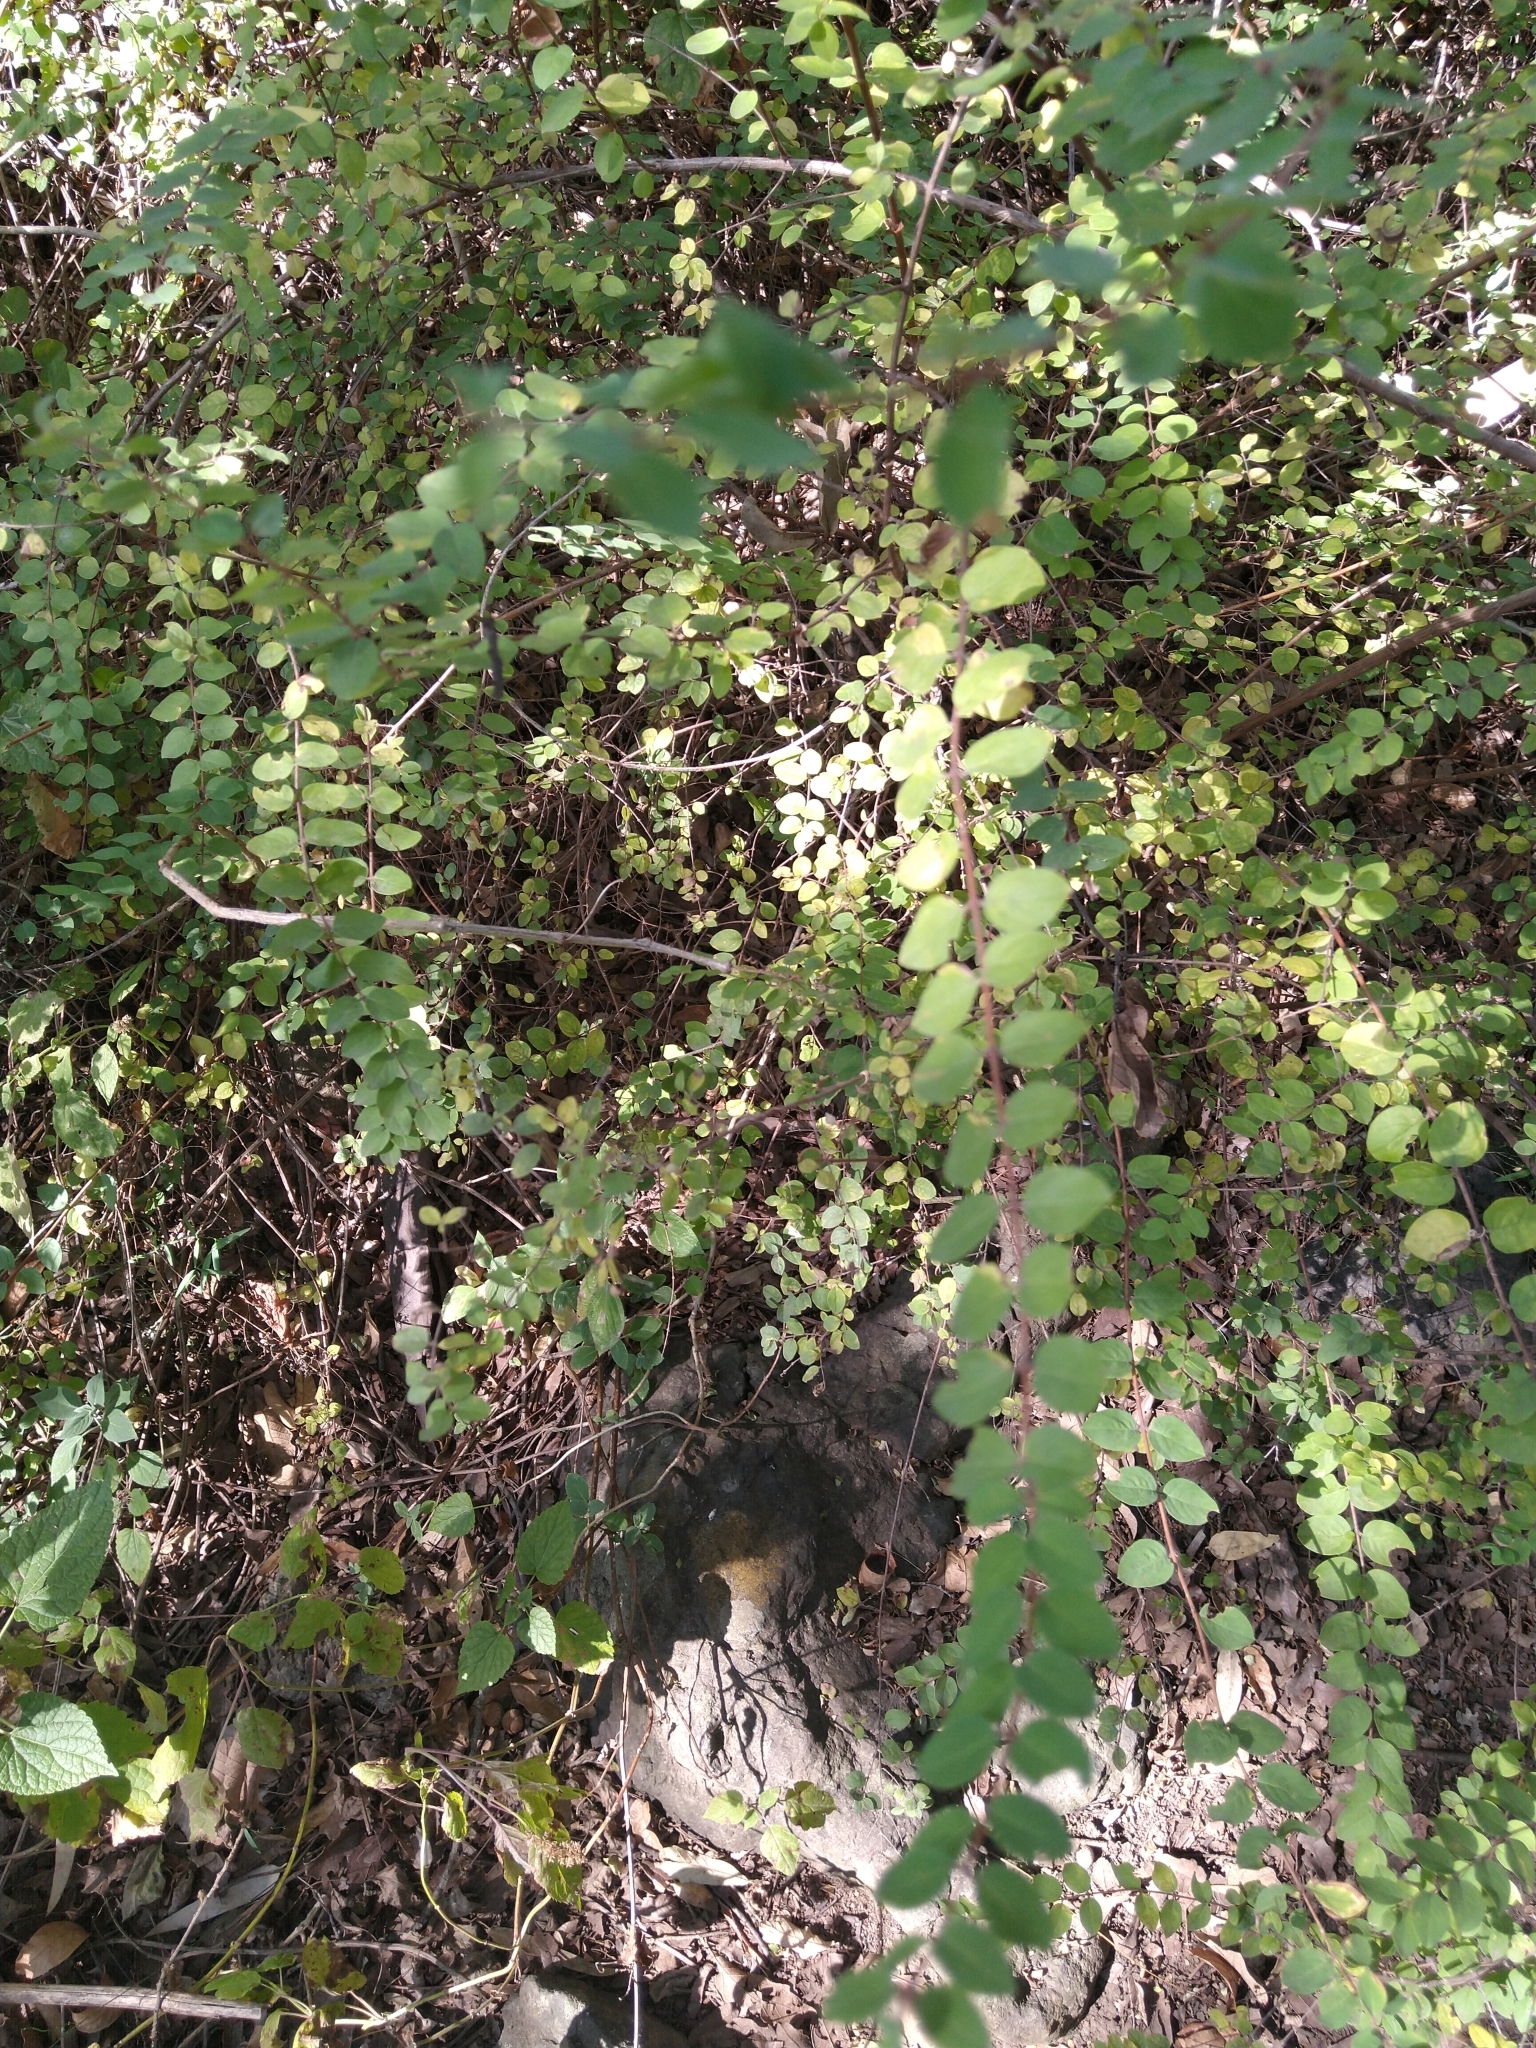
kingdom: Plantae
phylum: Tracheophyta
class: Magnoliopsida
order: Dipsacales
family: Caprifoliaceae
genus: Symphoricarpos
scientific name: Symphoricarpos microphyllus
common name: Small-leaved snowberry
